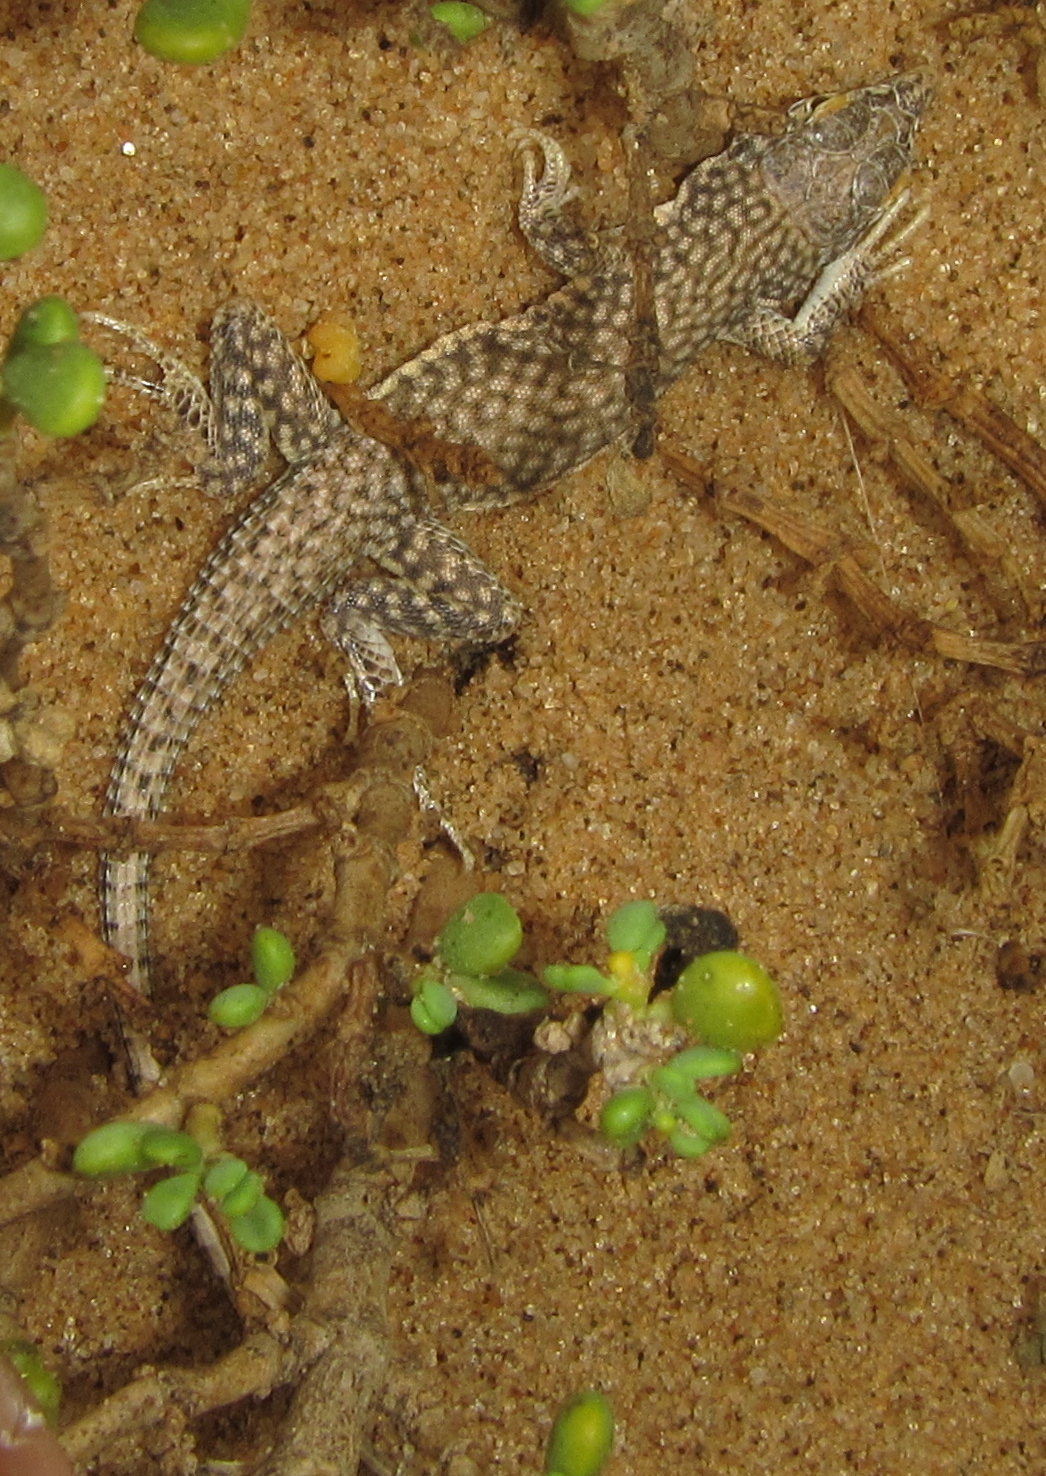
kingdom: Animalia
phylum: Chordata
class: Squamata
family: Lacertidae
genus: Meroles
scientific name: Meroles reticulatus
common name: Reticulate sand lizard
